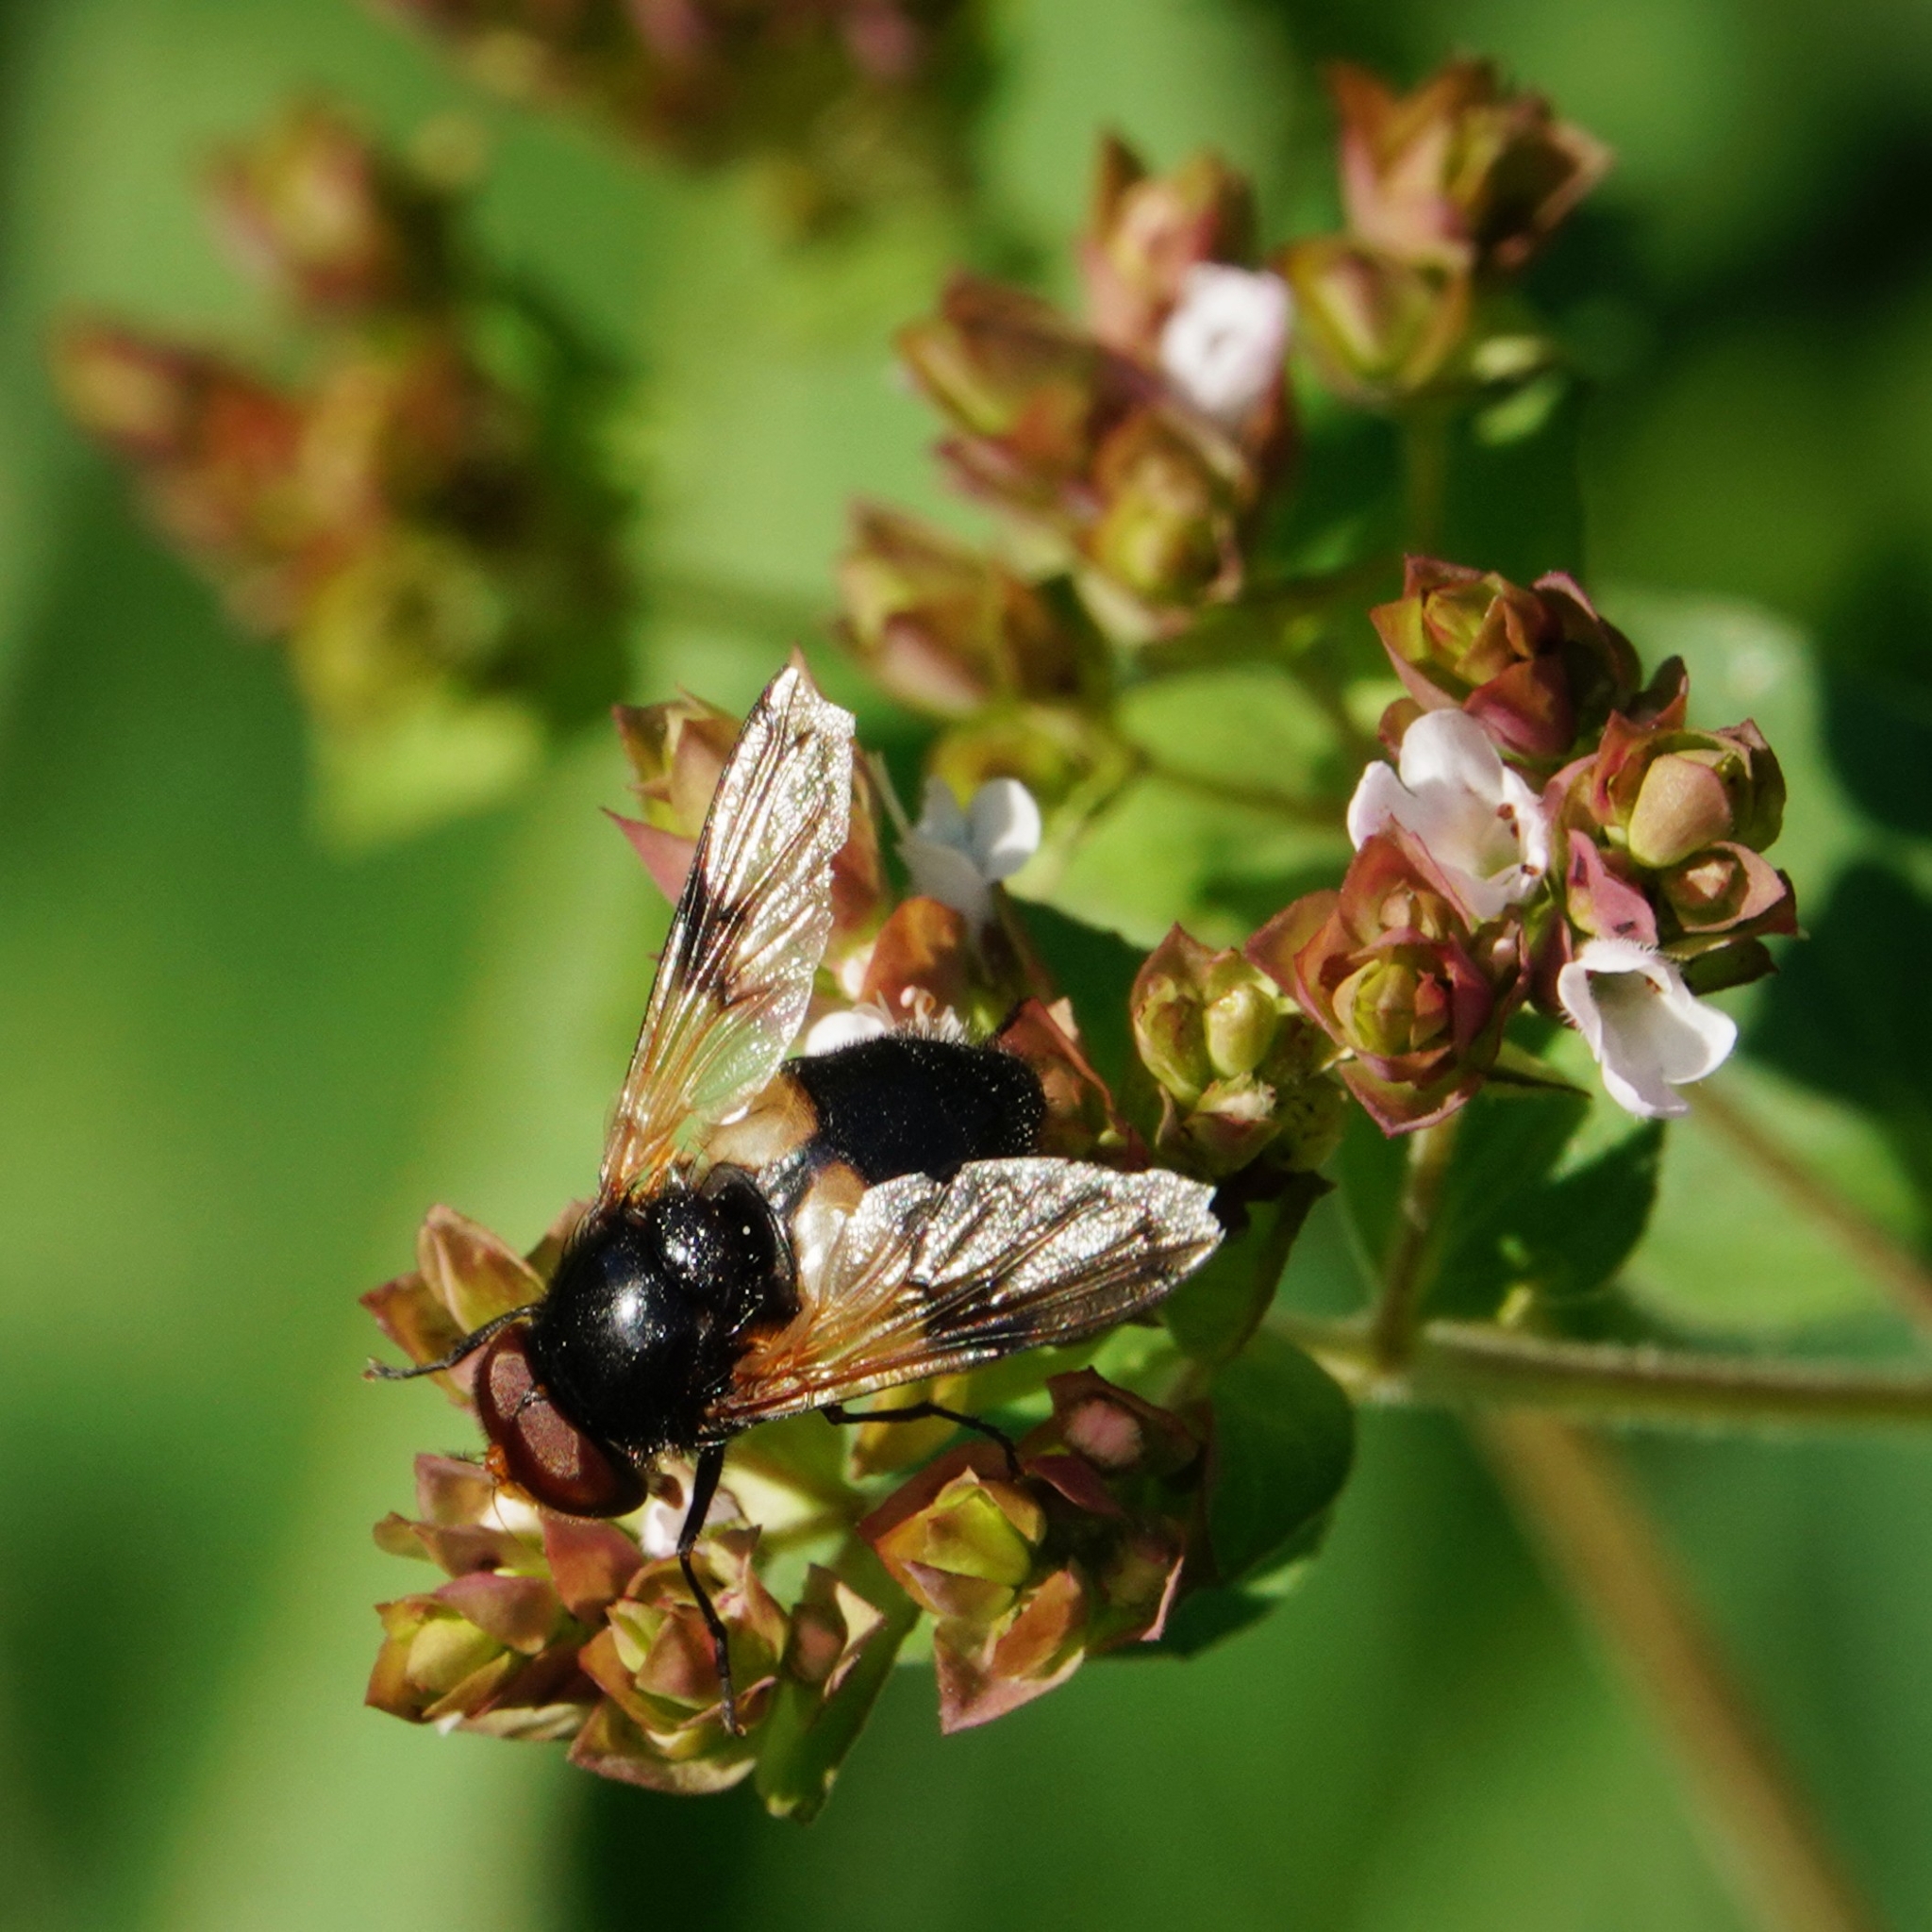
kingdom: Animalia
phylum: Arthropoda
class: Insecta
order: Diptera
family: Syrphidae
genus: Volucella
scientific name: Volucella pellucens
